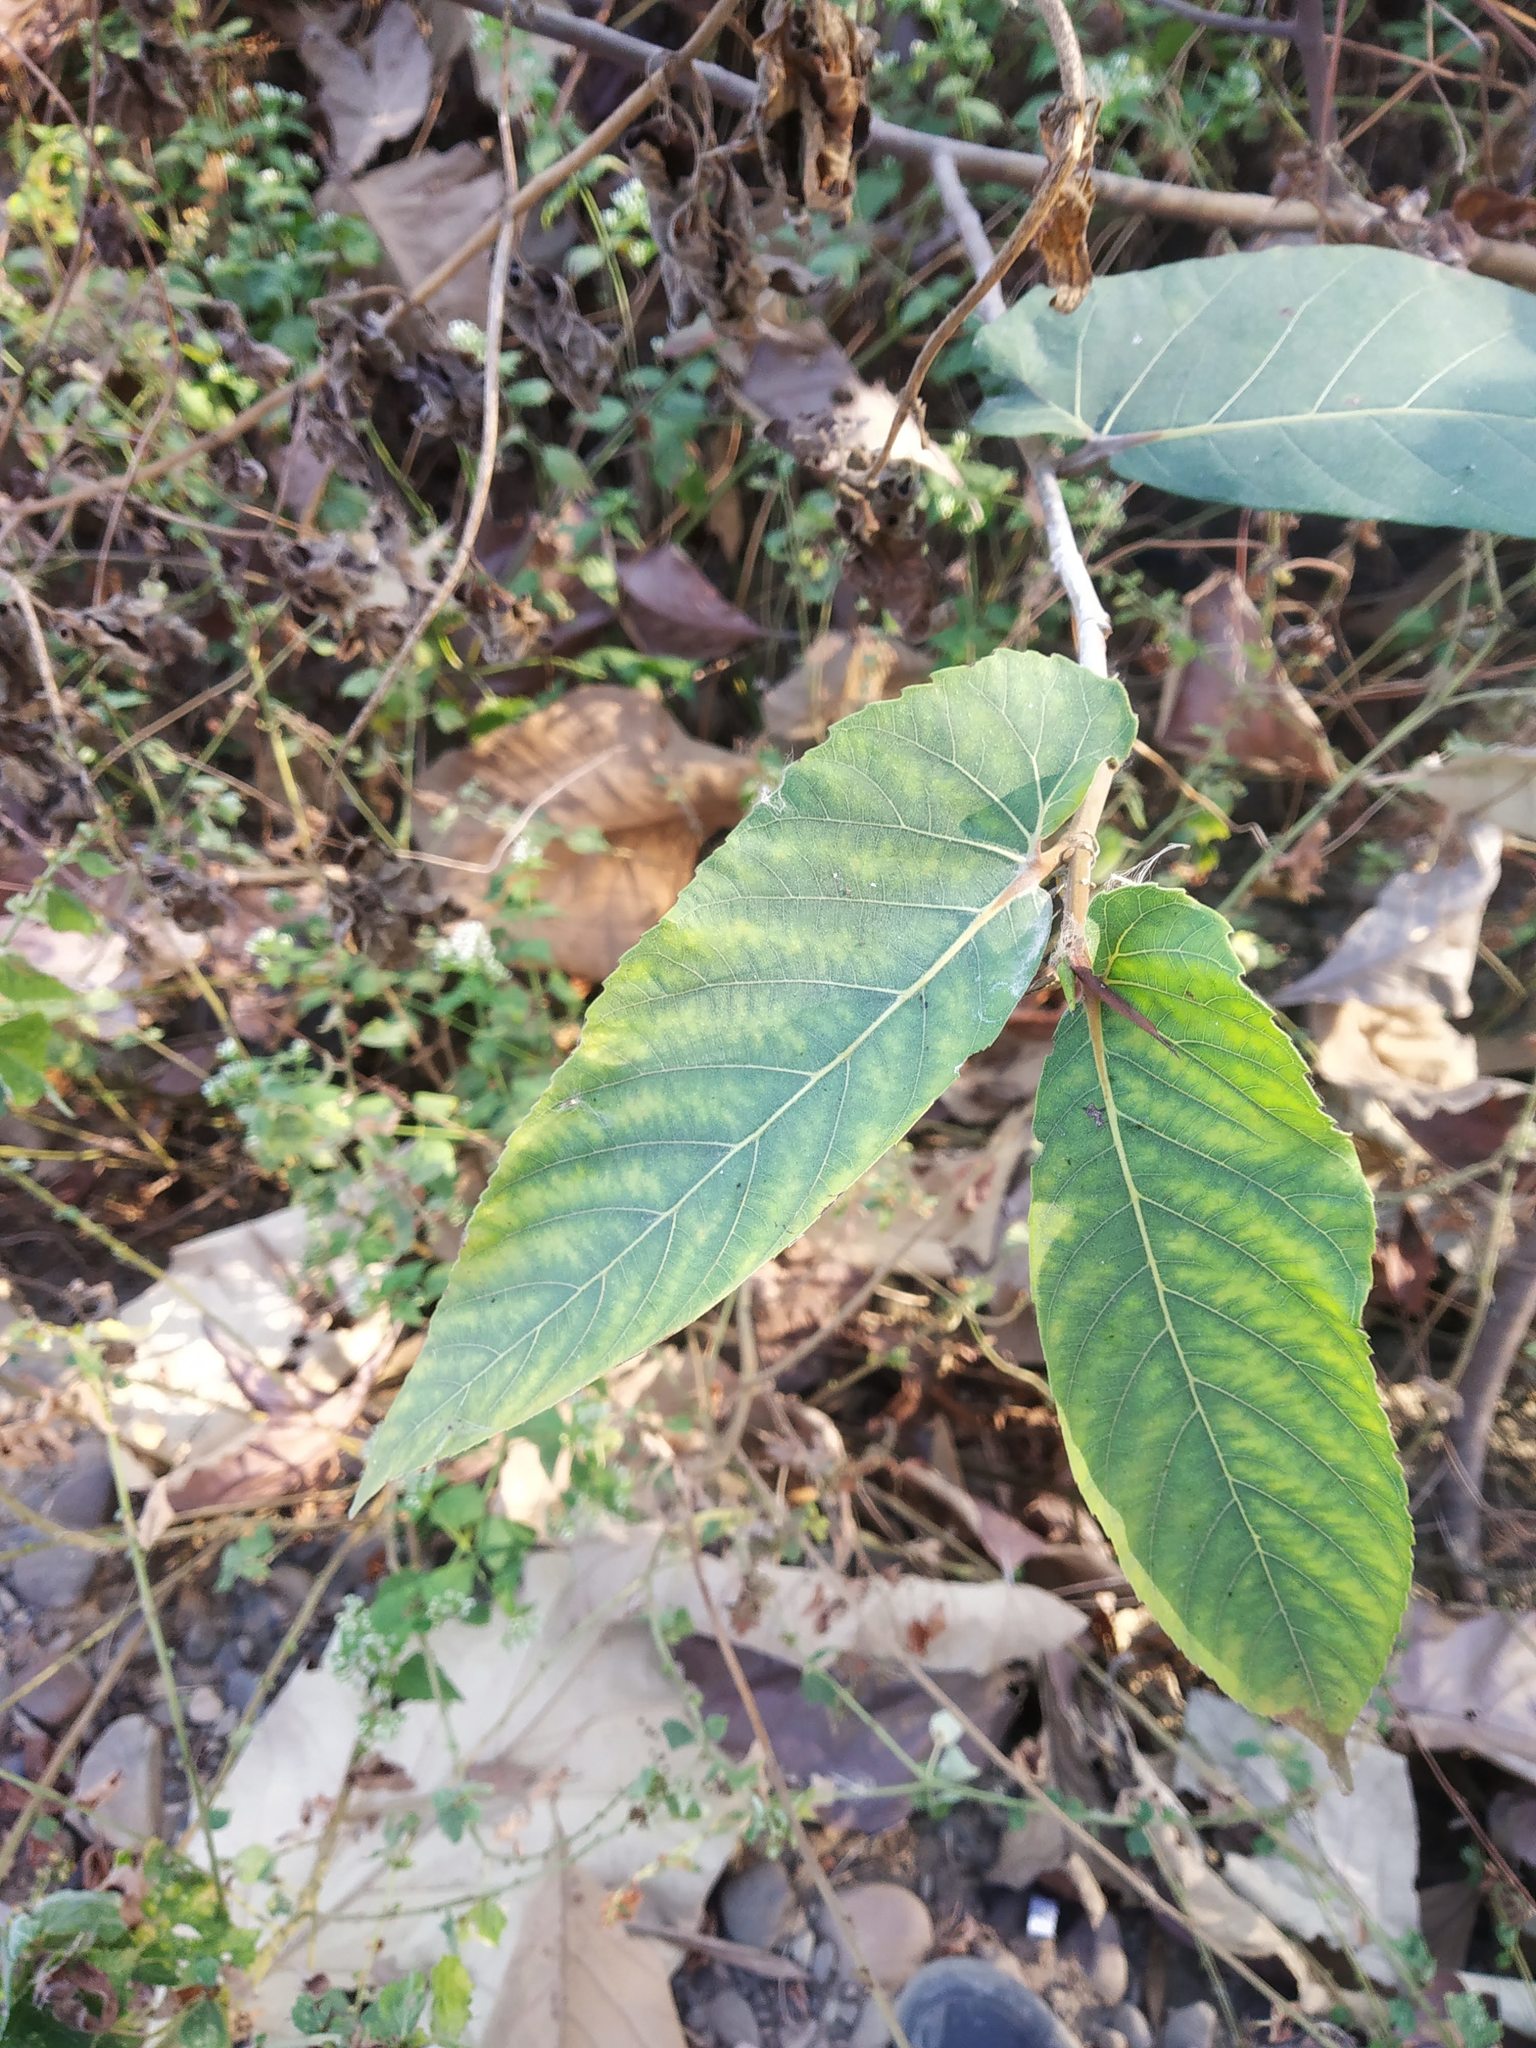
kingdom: Plantae
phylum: Tracheophyta
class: Magnoliopsida
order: Rosales
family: Moraceae
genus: Ficus
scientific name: Ficus semicordata
